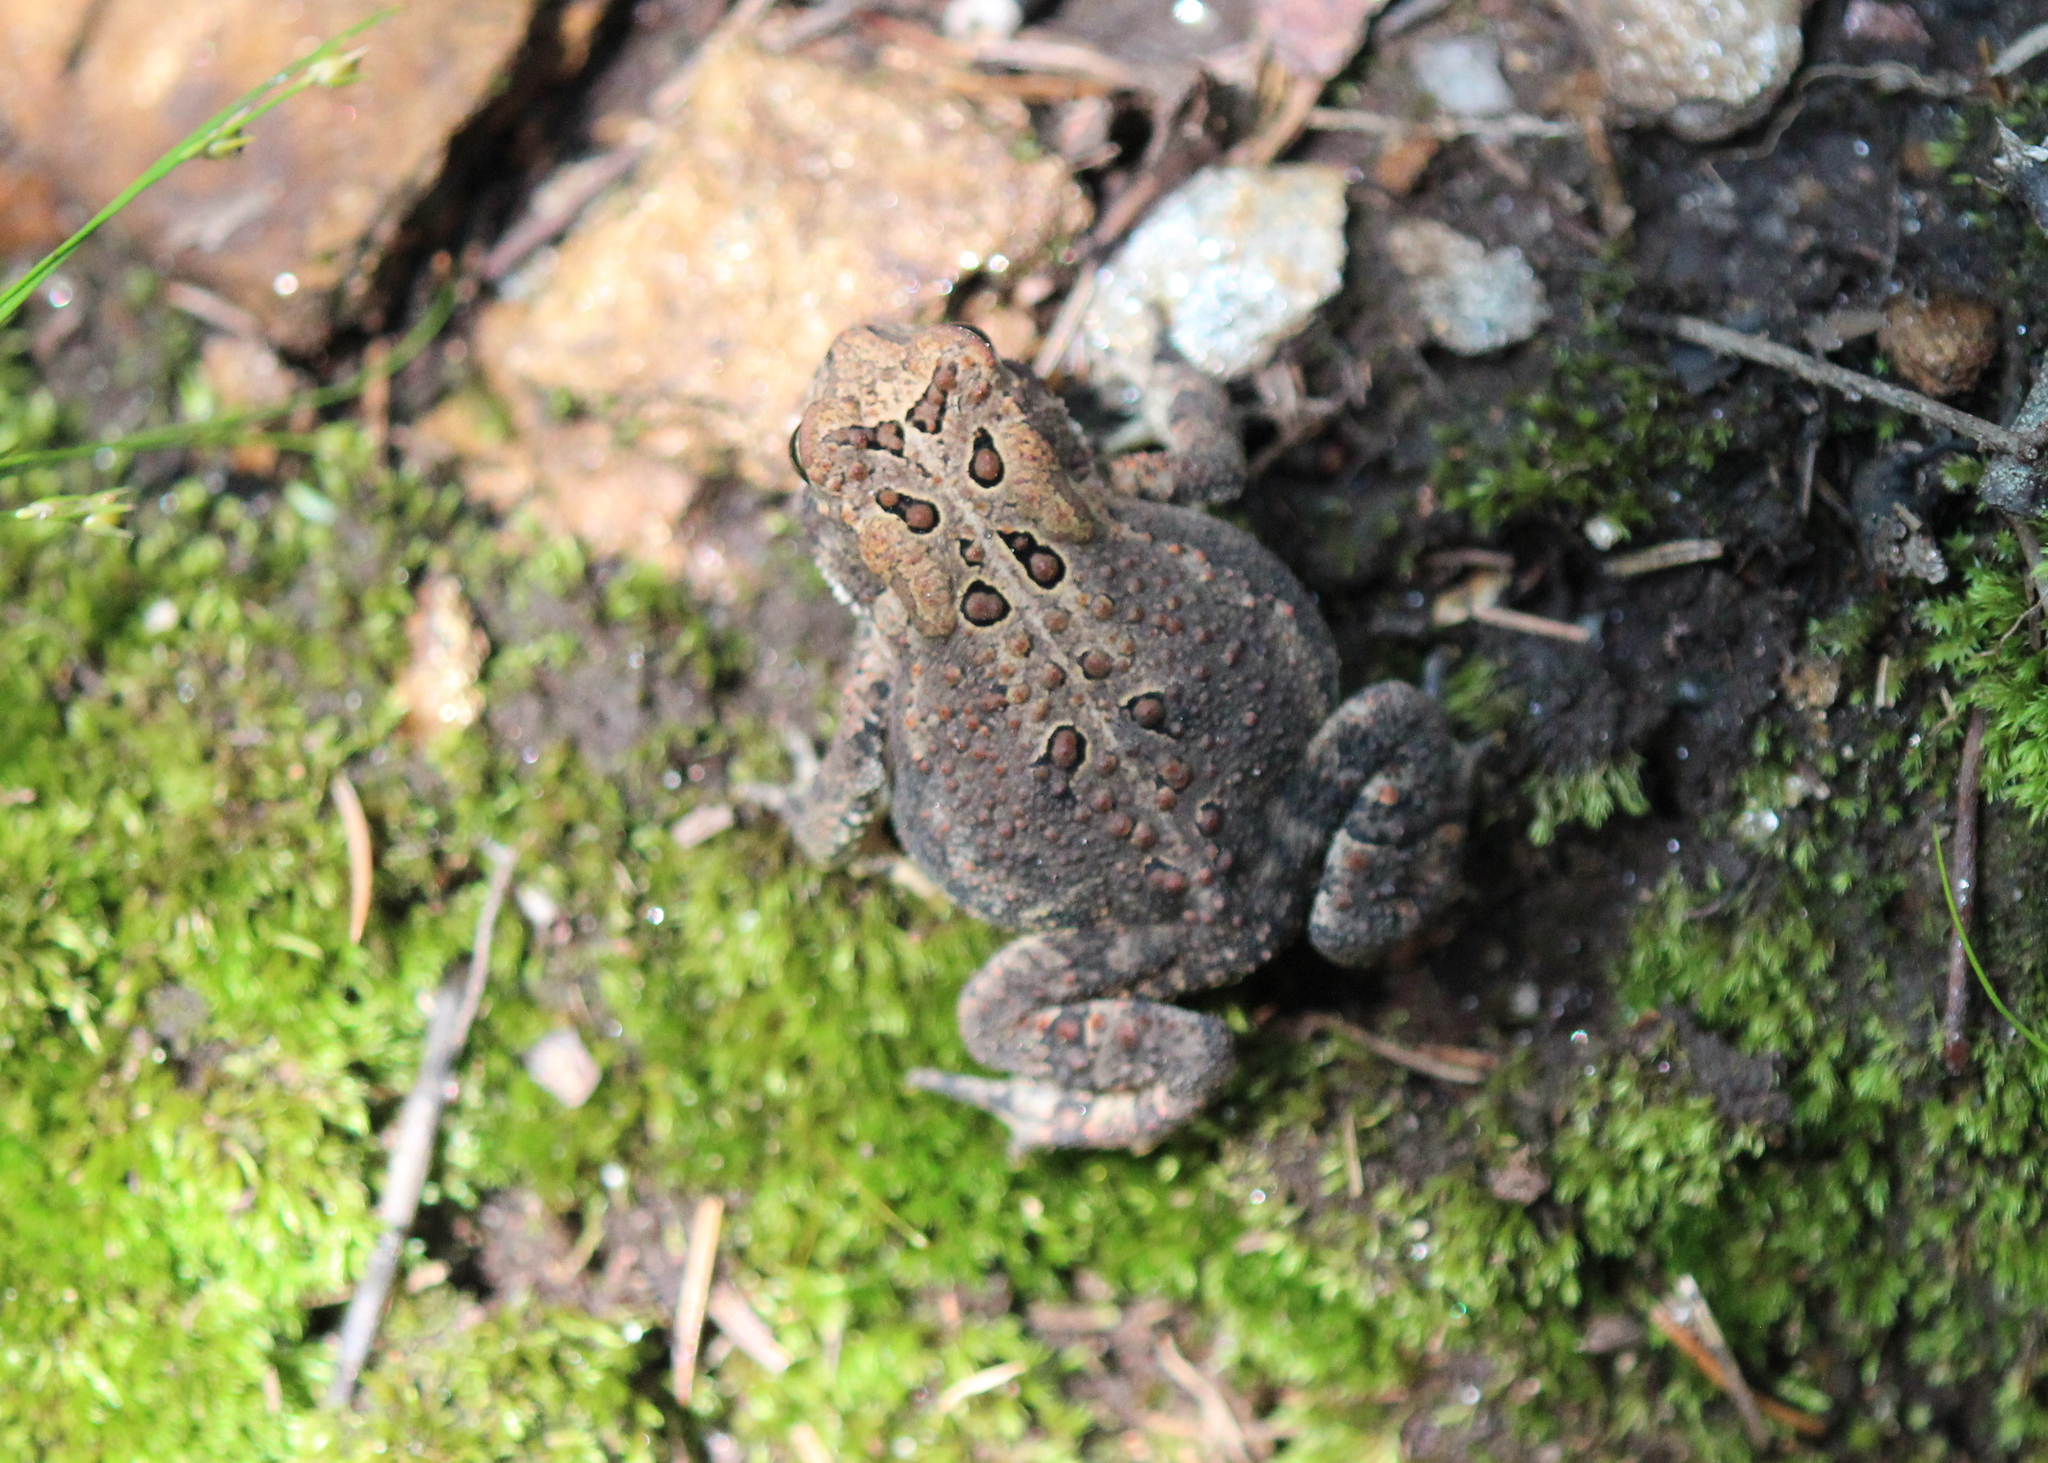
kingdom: Animalia
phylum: Chordata
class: Amphibia
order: Anura
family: Bufonidae
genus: Anaxyrus
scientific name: Anaxyrus americanus
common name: American toad
